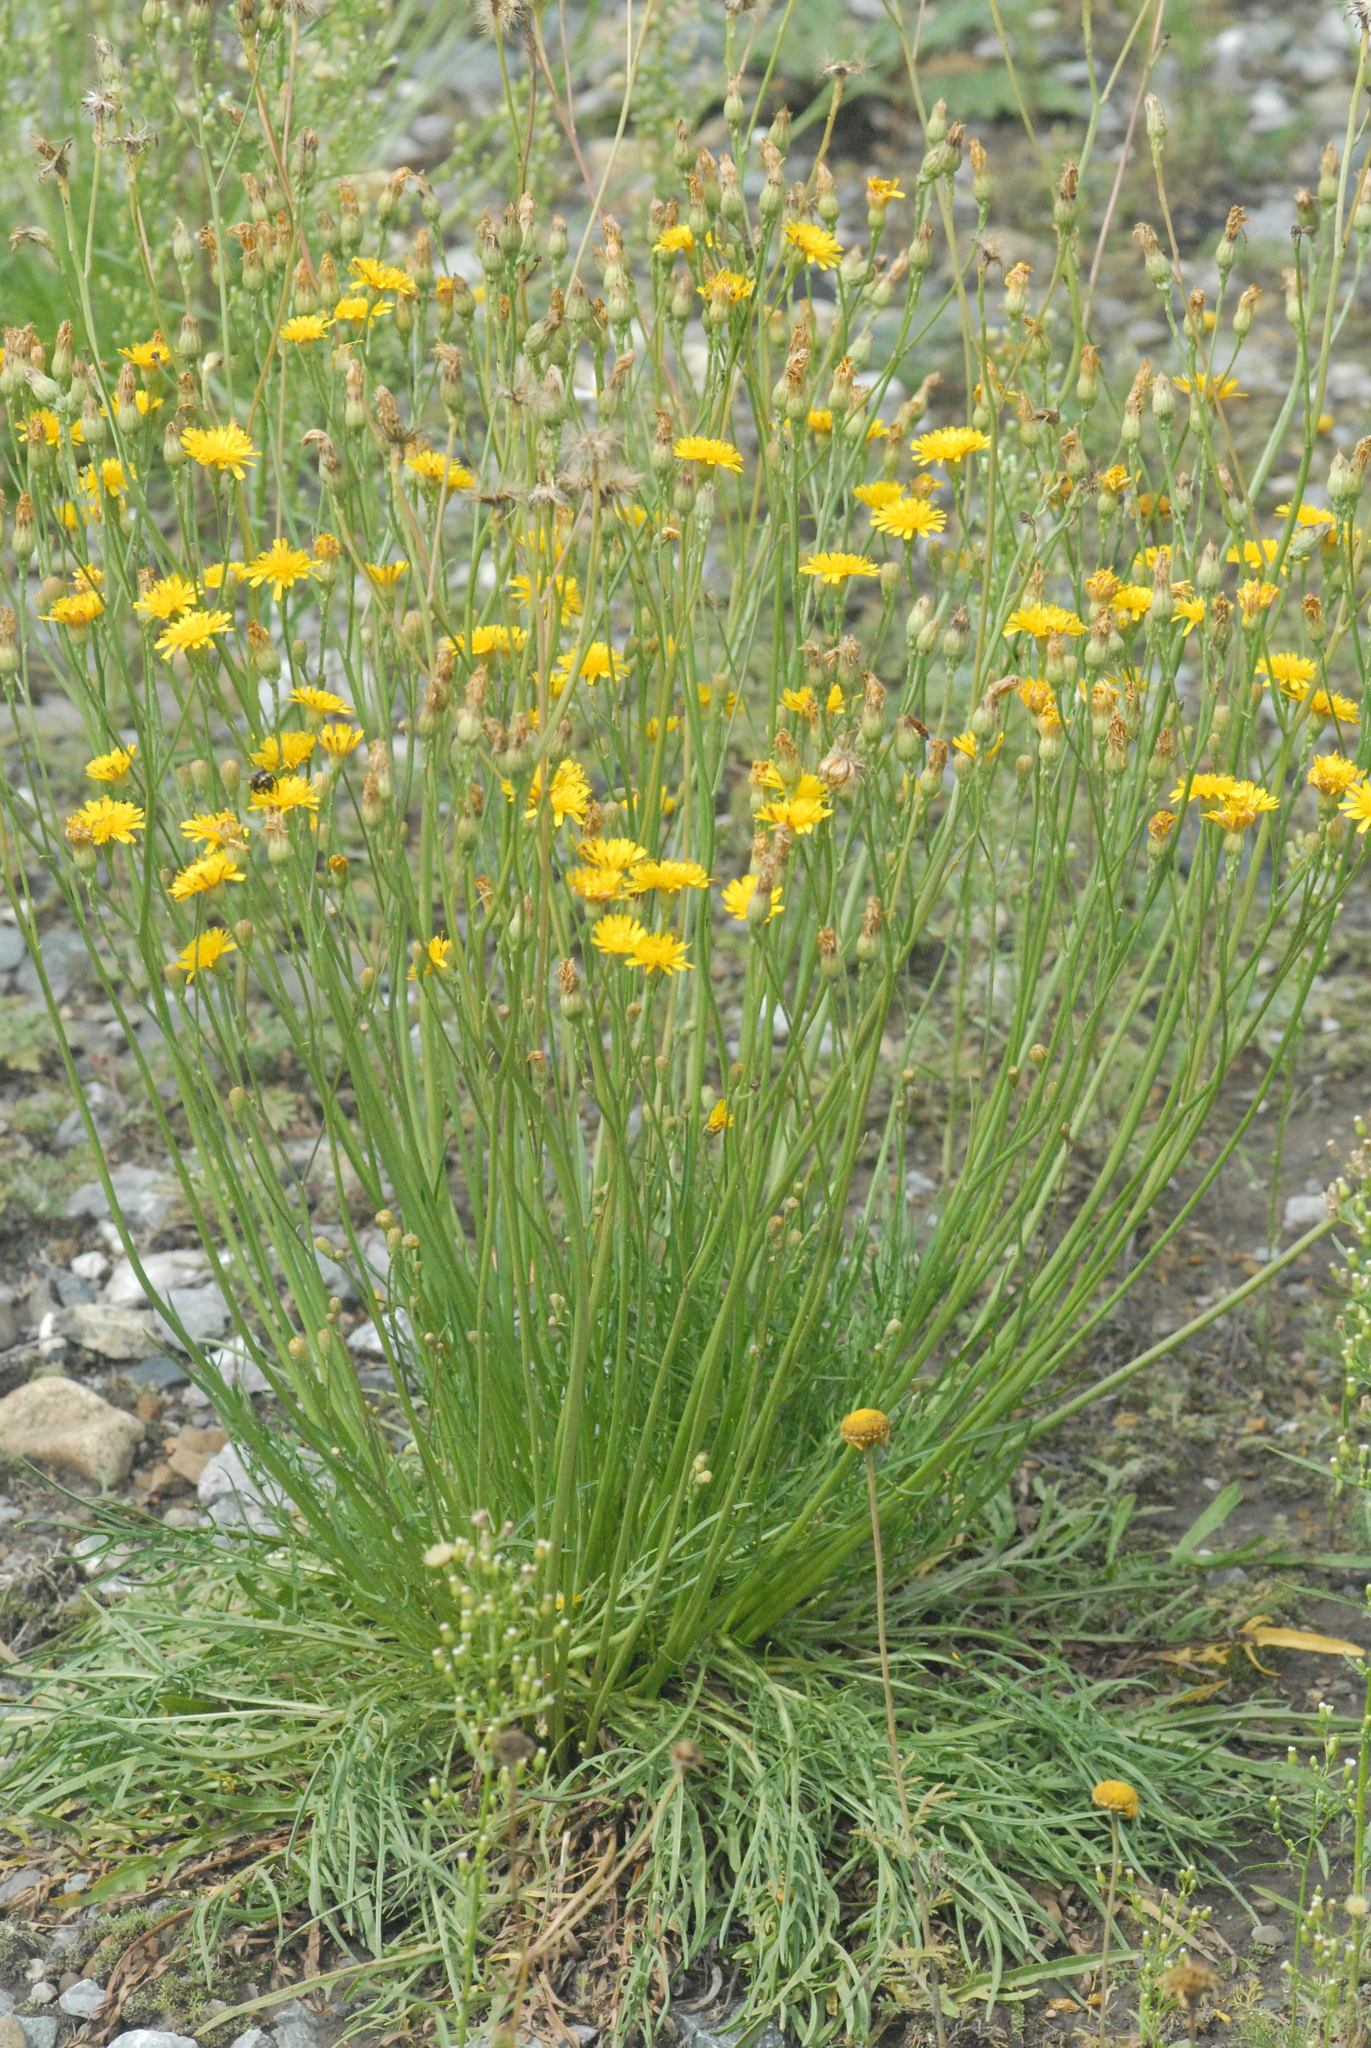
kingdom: Plantae
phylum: Tracheophyta
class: Magnoliopsida
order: Asterales
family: Asteraceae
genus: Scorzoneroides
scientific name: Scorzoneroides autumnalis
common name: Autumn hawkbit
